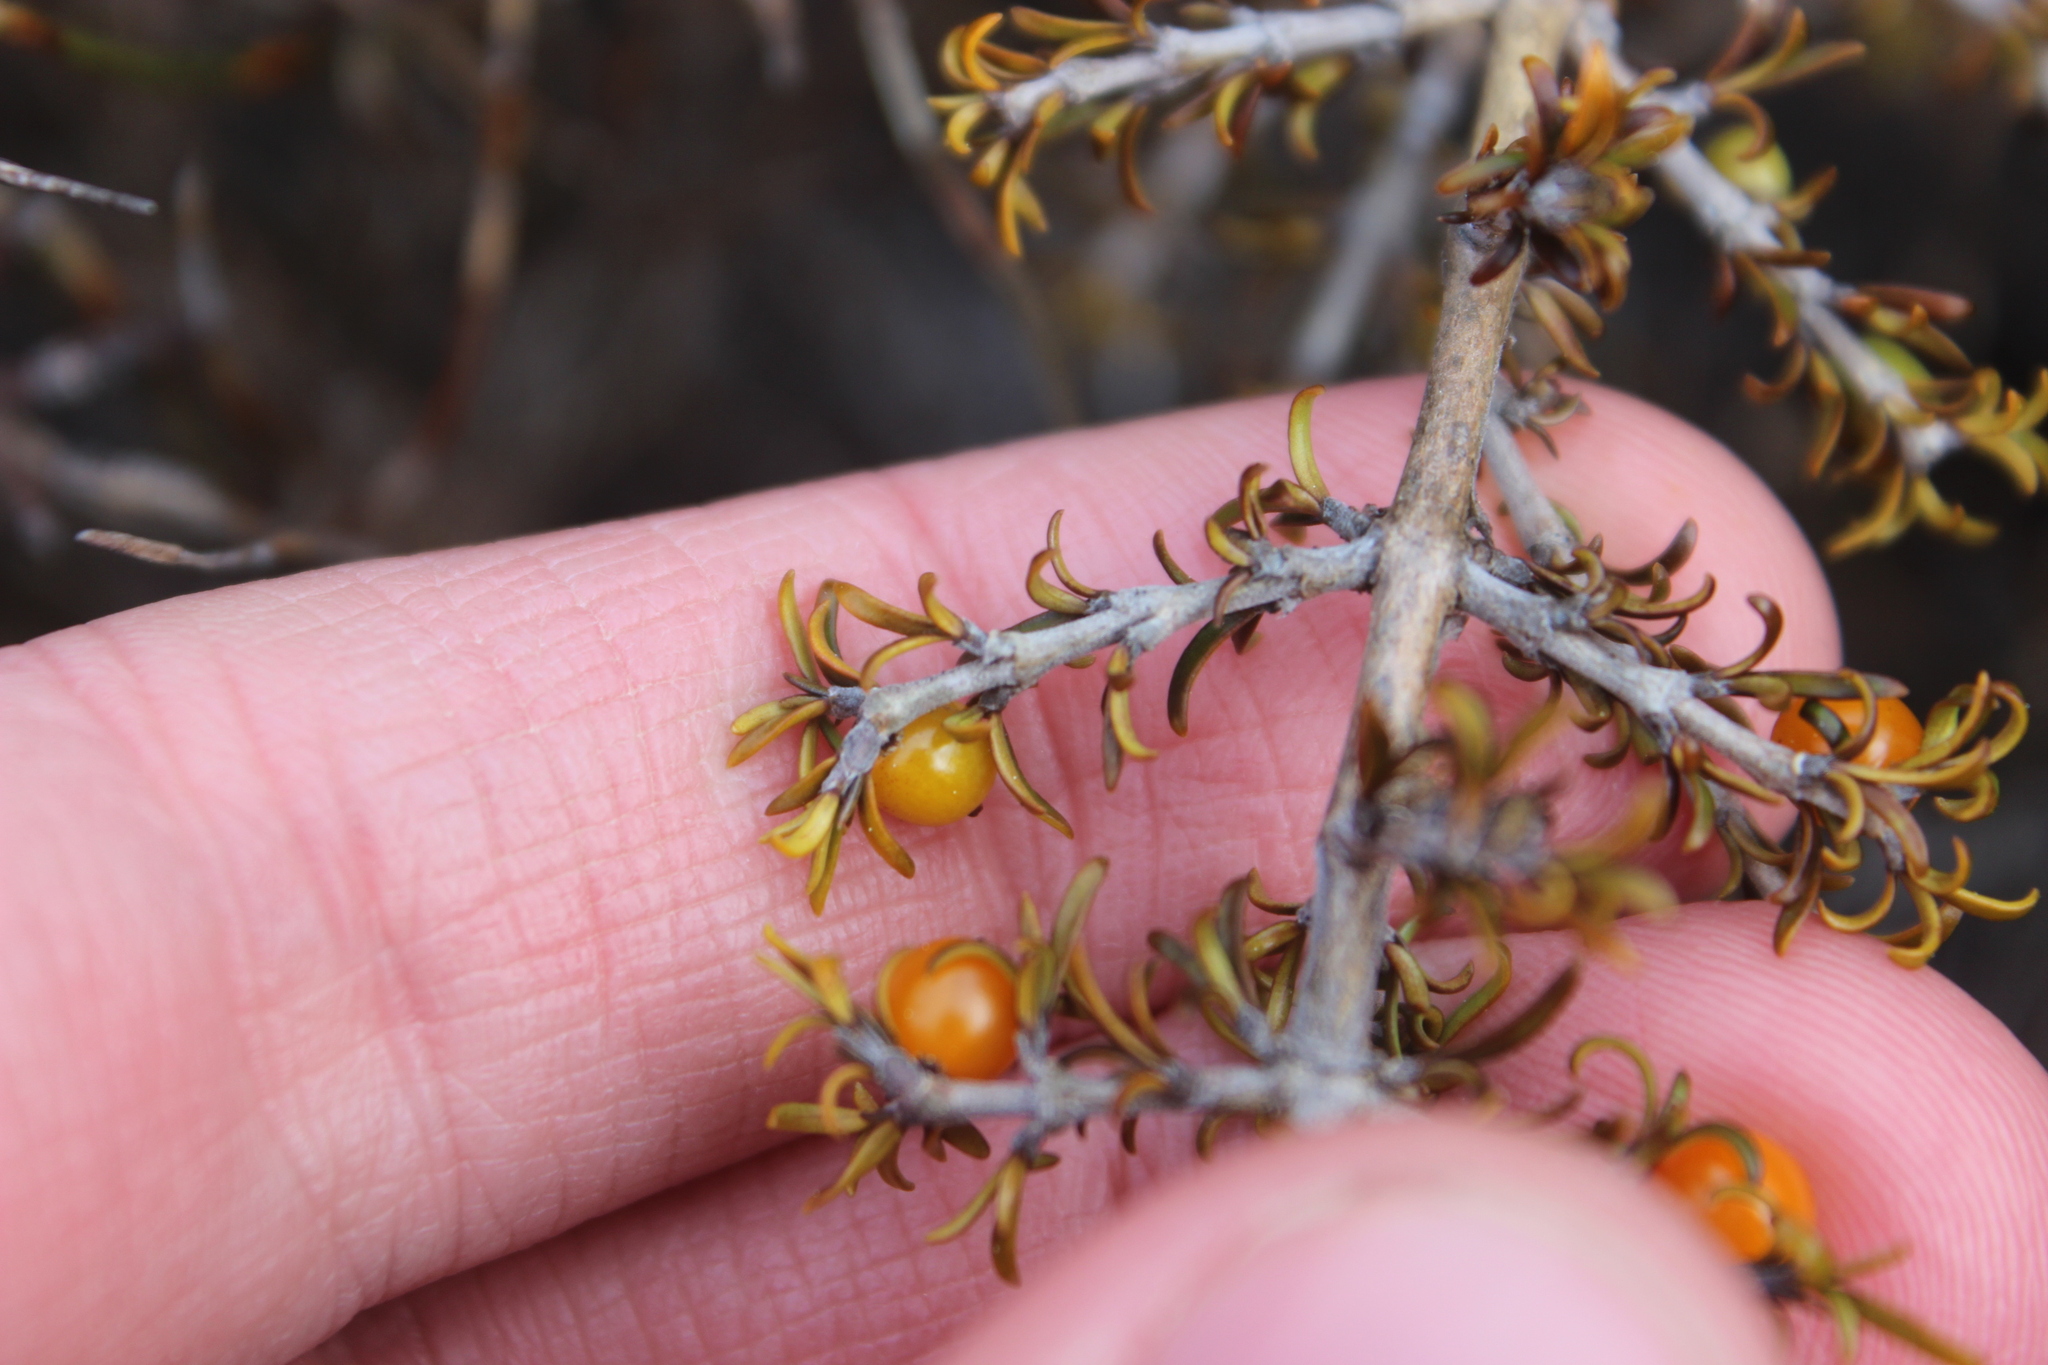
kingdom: Plantae
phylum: Tracheophyta
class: Magnoliopsida
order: Gentianales
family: Rubiaceae
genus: Coprosma
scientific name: Coprosma cheesemanii
